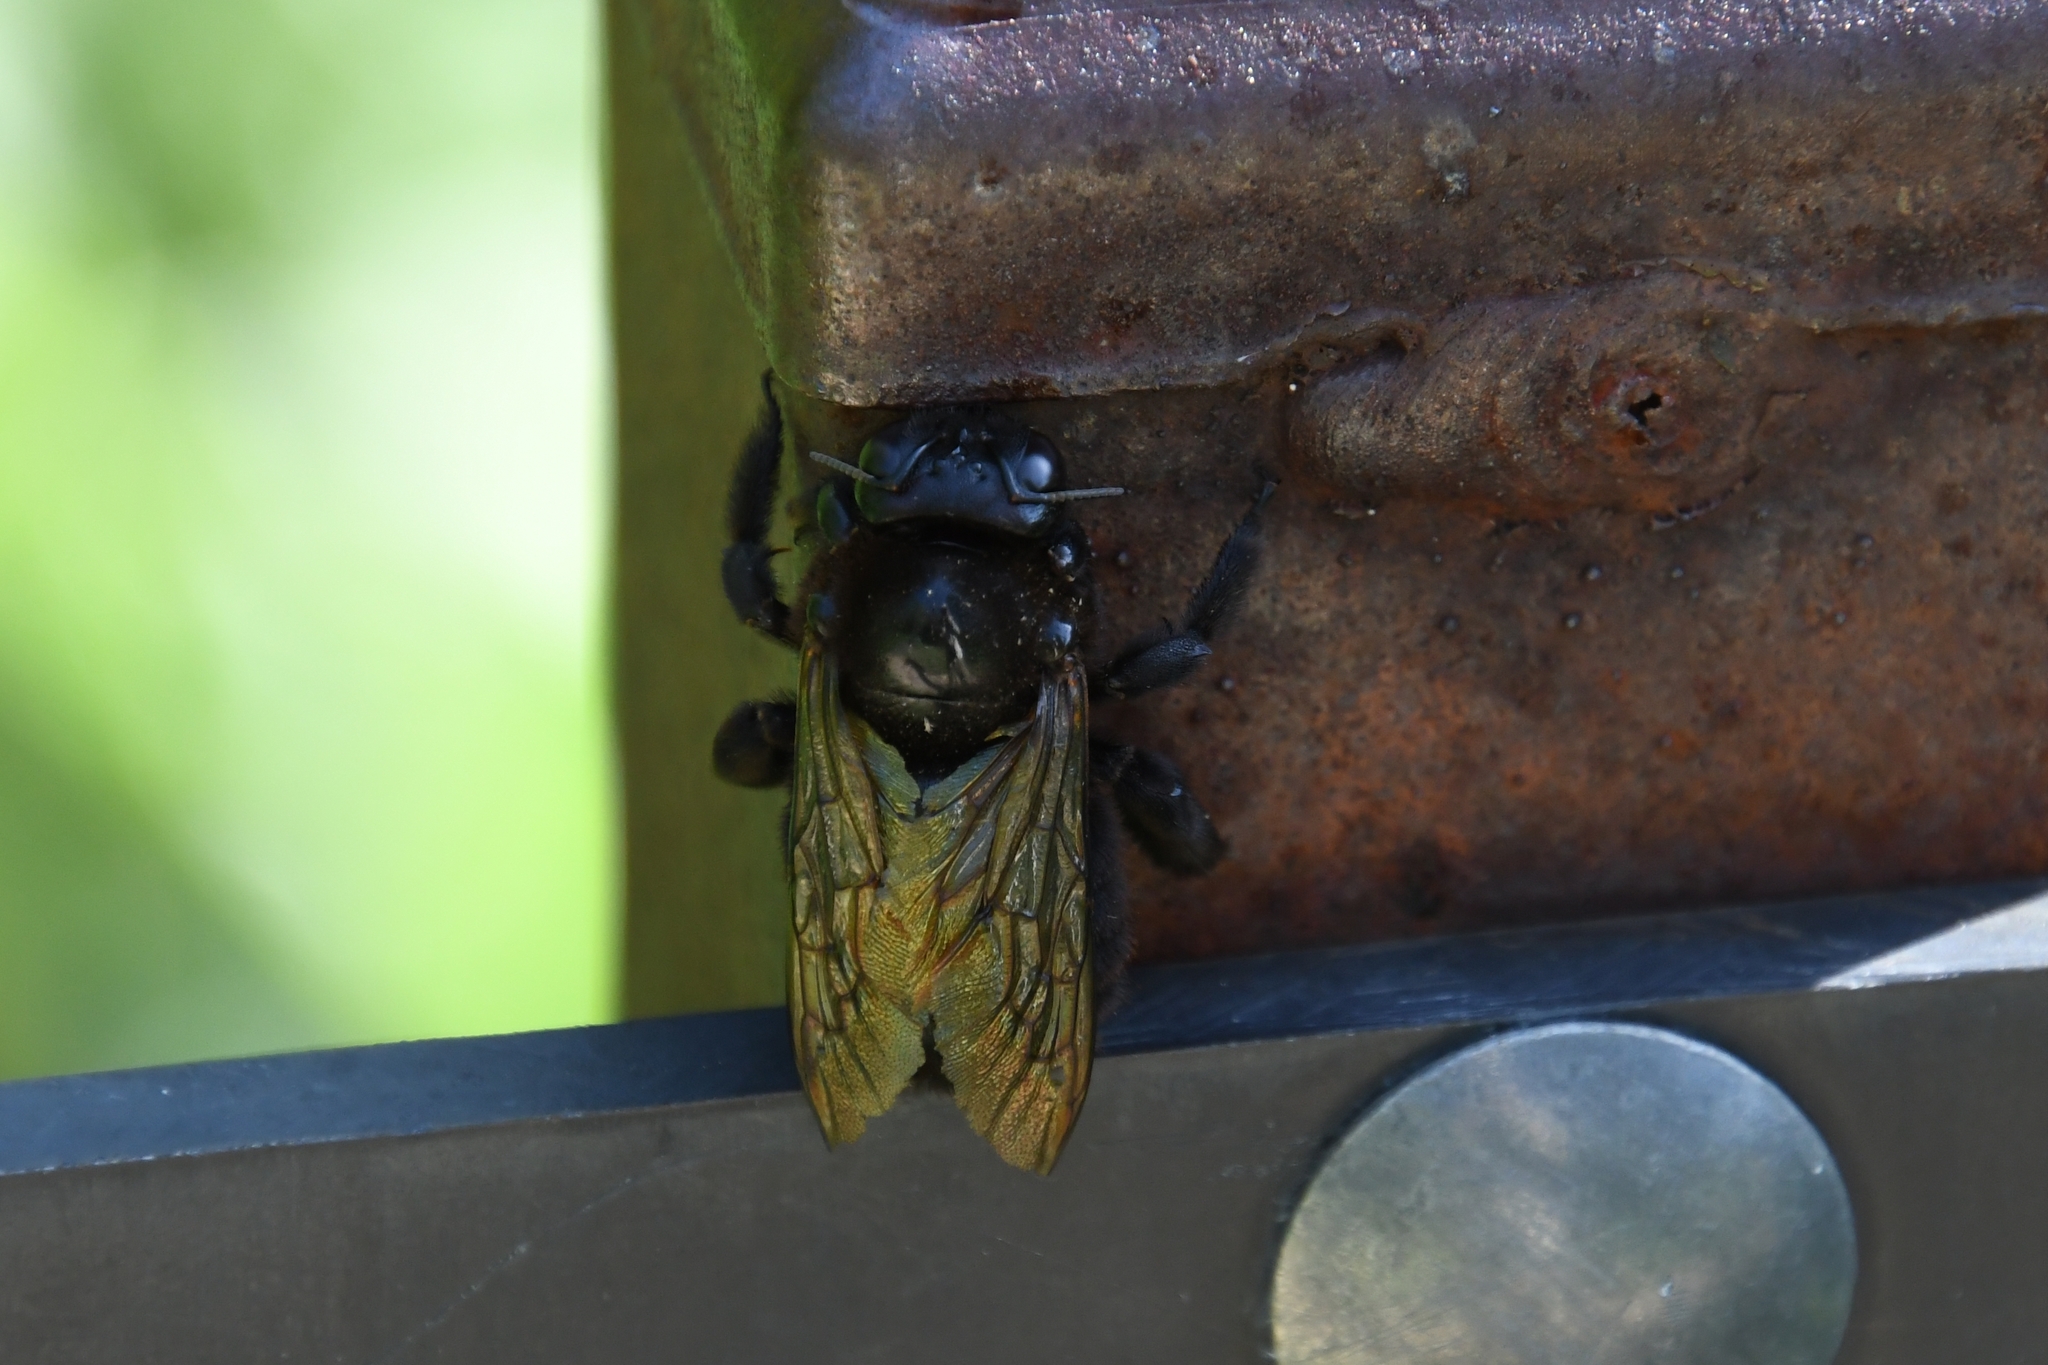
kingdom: Animalia
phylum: Arthropoda
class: Insecta
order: Hymenoptera
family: Apidae
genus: Xylocopa
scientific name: Xylocopa sonorina
